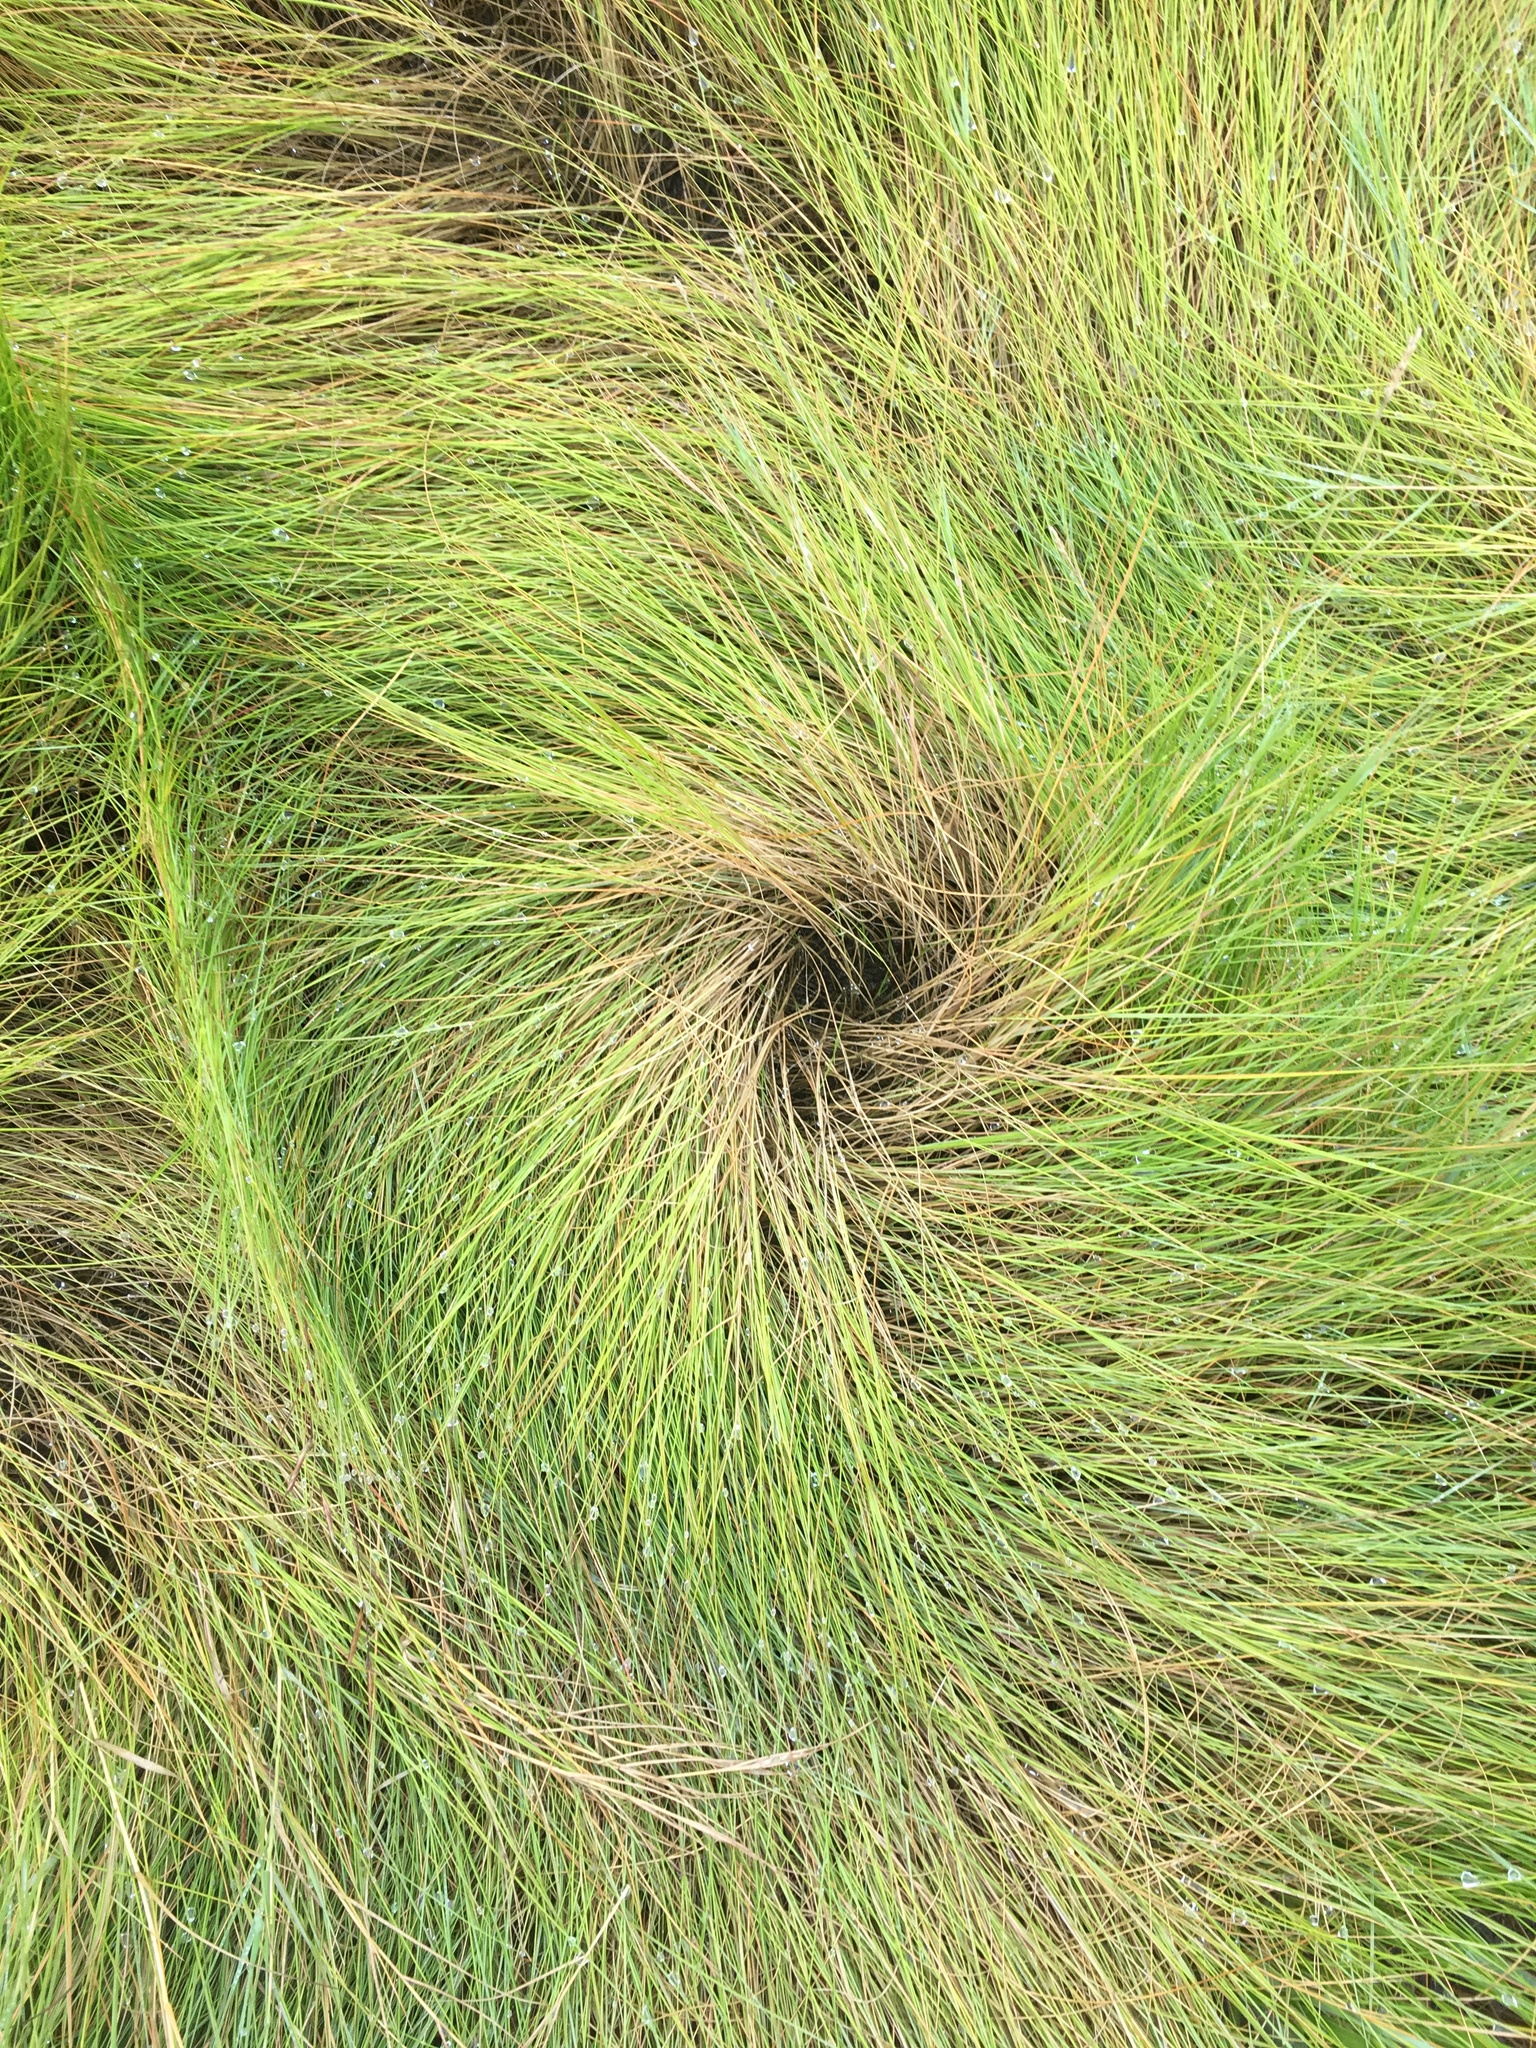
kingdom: Plantae
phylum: Tracheophyta
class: Liliopsida
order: Poales
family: Poaceae
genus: Sporobolus
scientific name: Sporobolus pumilus
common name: Highwater grass
